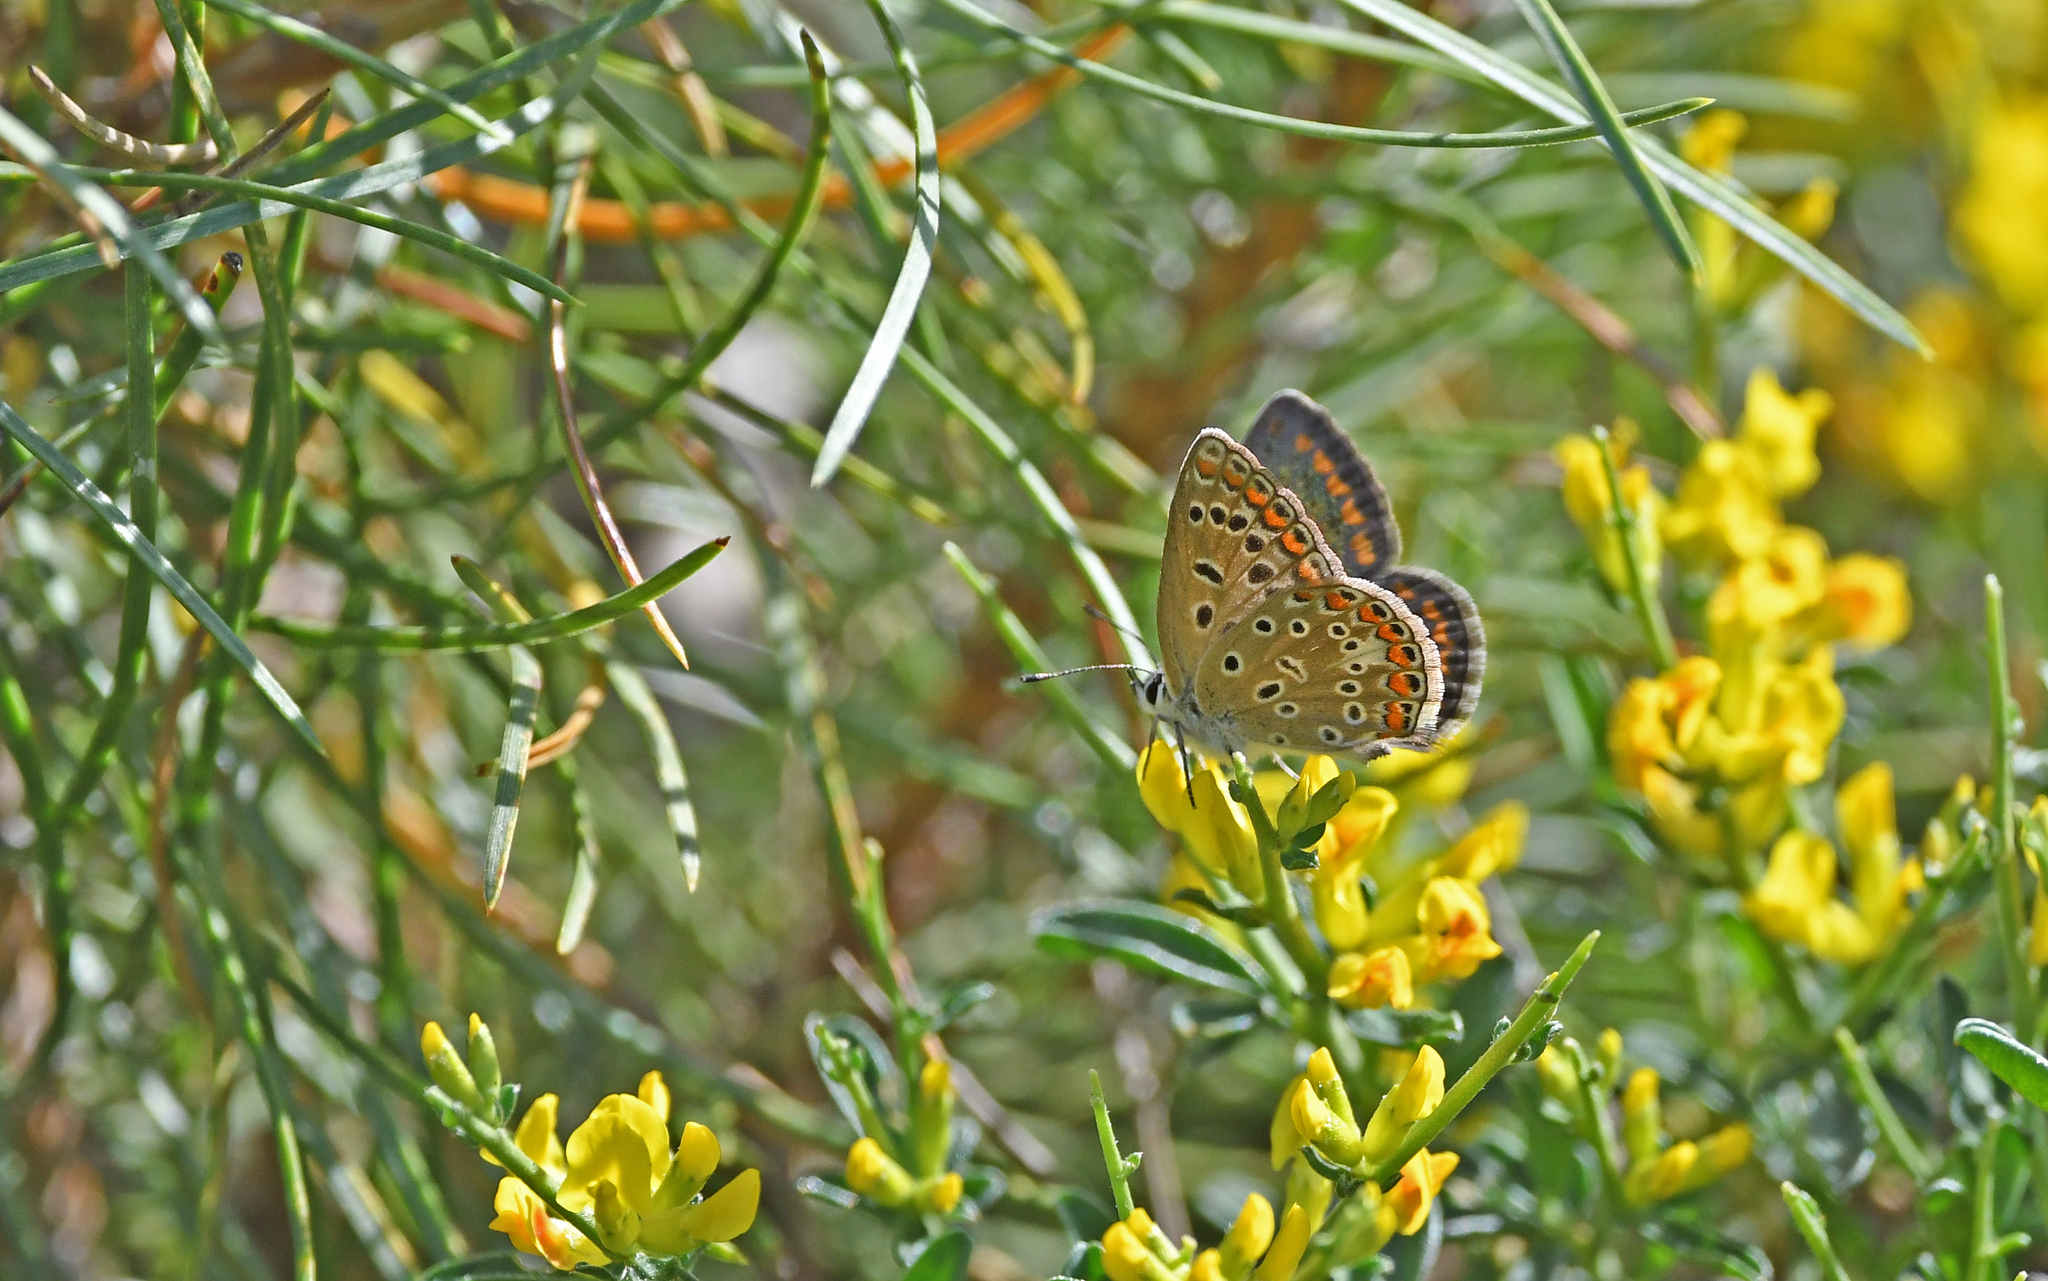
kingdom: Animalia
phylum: Arthropoda
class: Insecta
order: Lepidoptera
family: Lycaenidae
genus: Aricia
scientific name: Aricia agestis
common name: Brown argus
